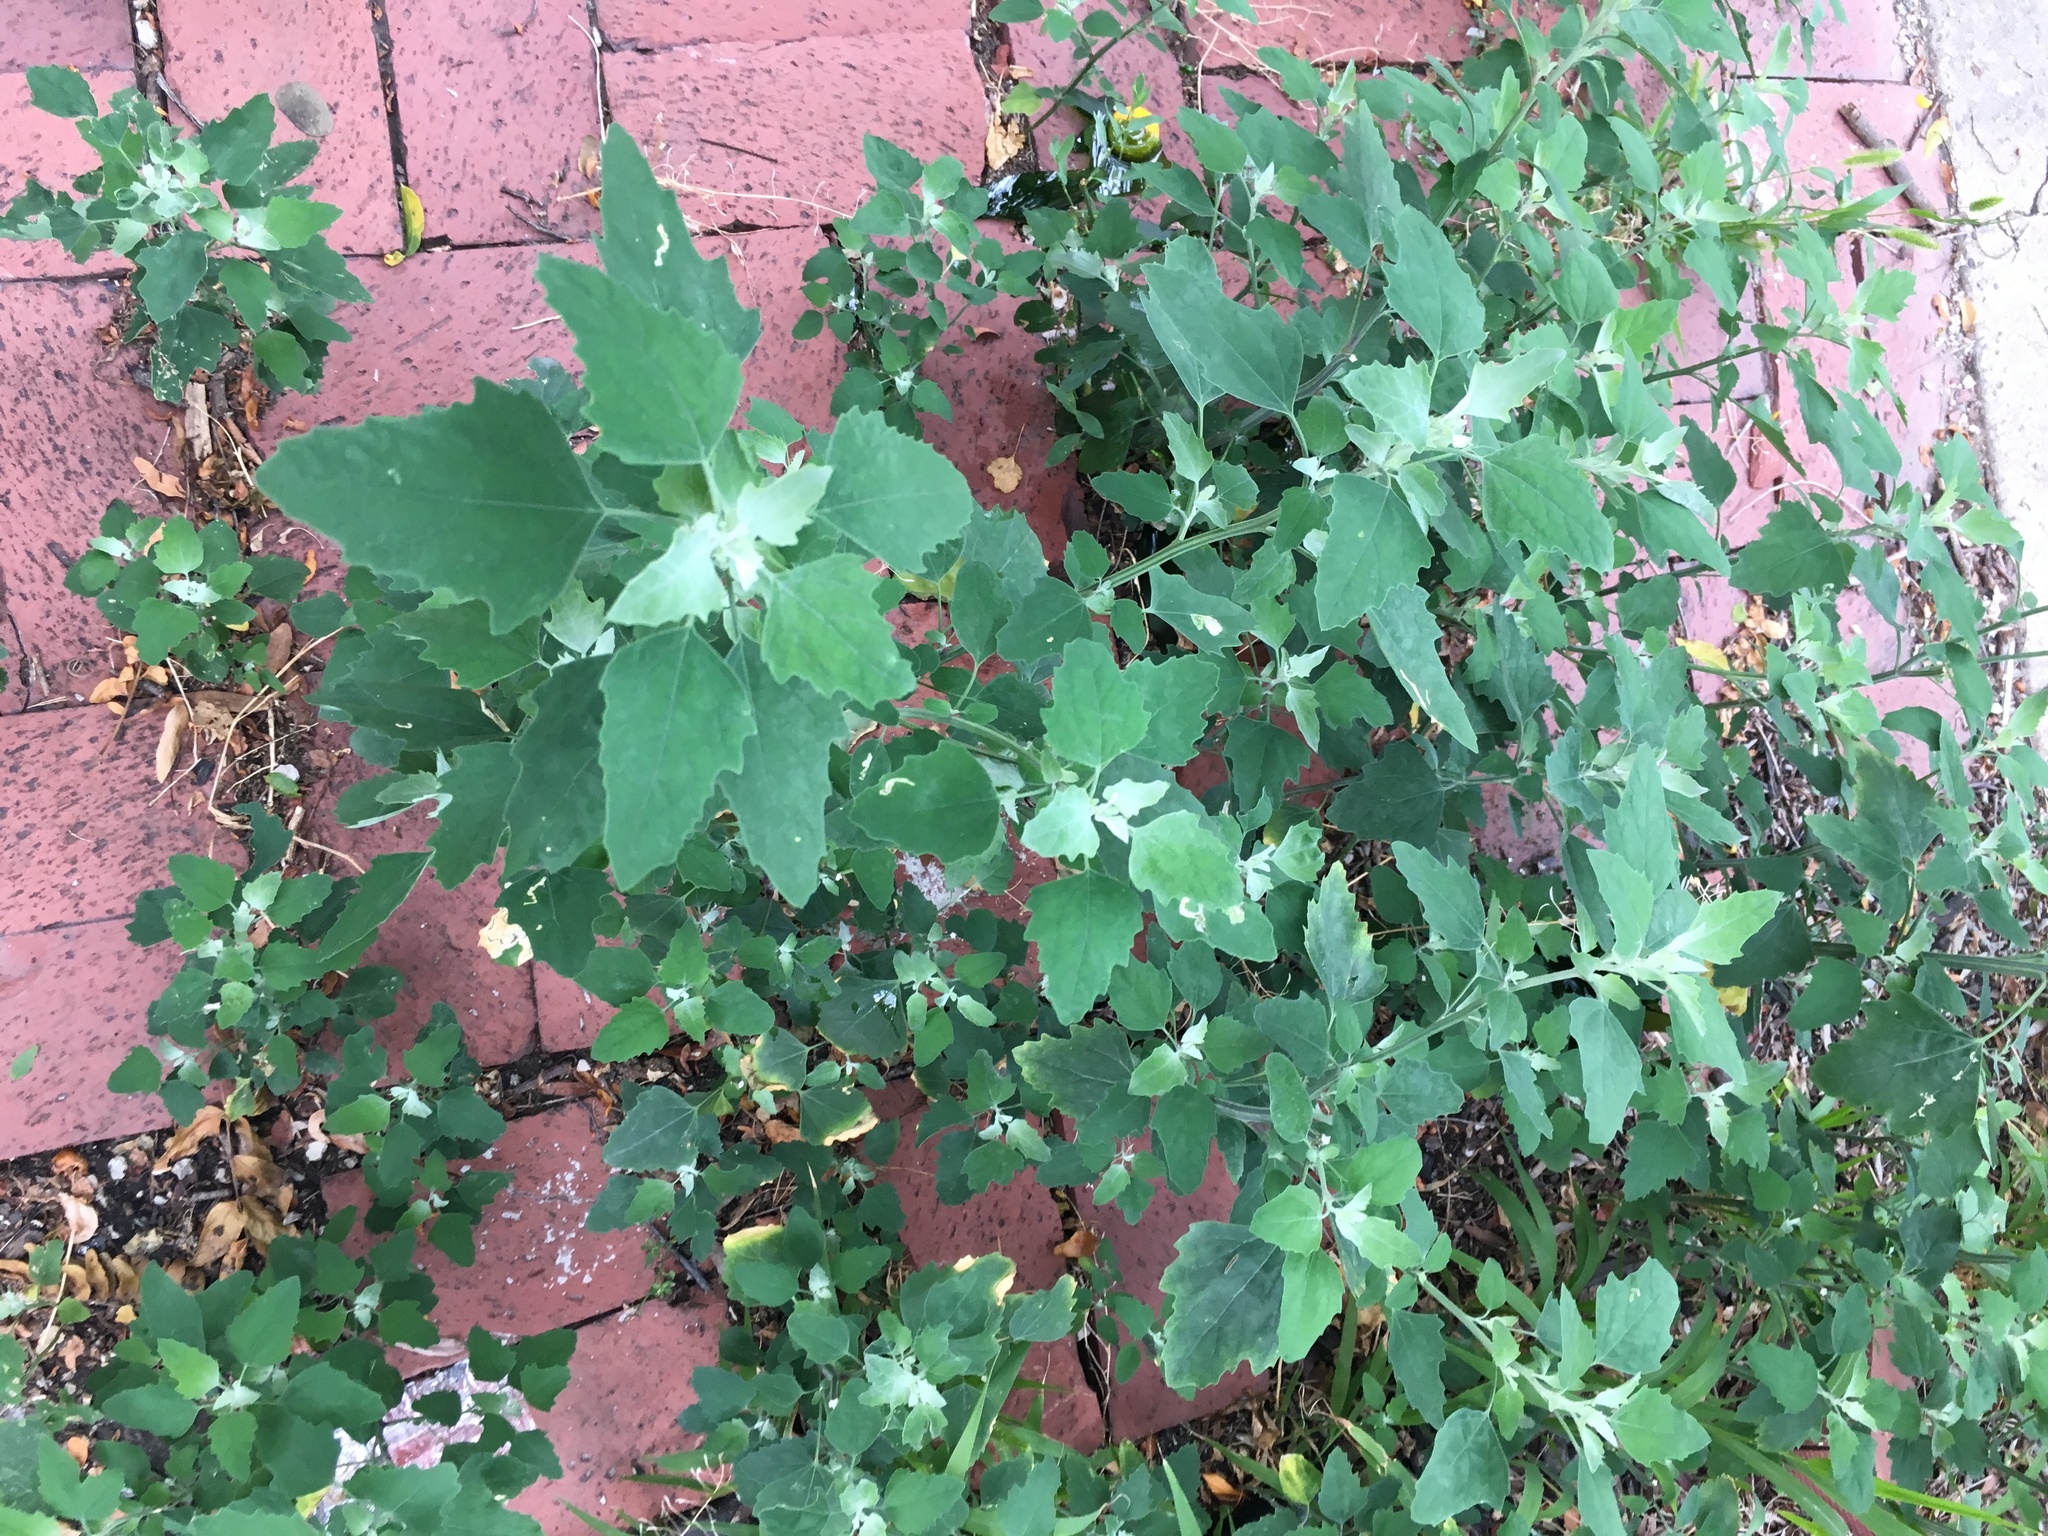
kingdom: Plantae
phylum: Tracheophyta
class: Magnoliopsida
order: Caryophyllales
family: Amaranthaceae
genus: Chenopodium
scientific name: Chenopodium album
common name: Fat-hen
